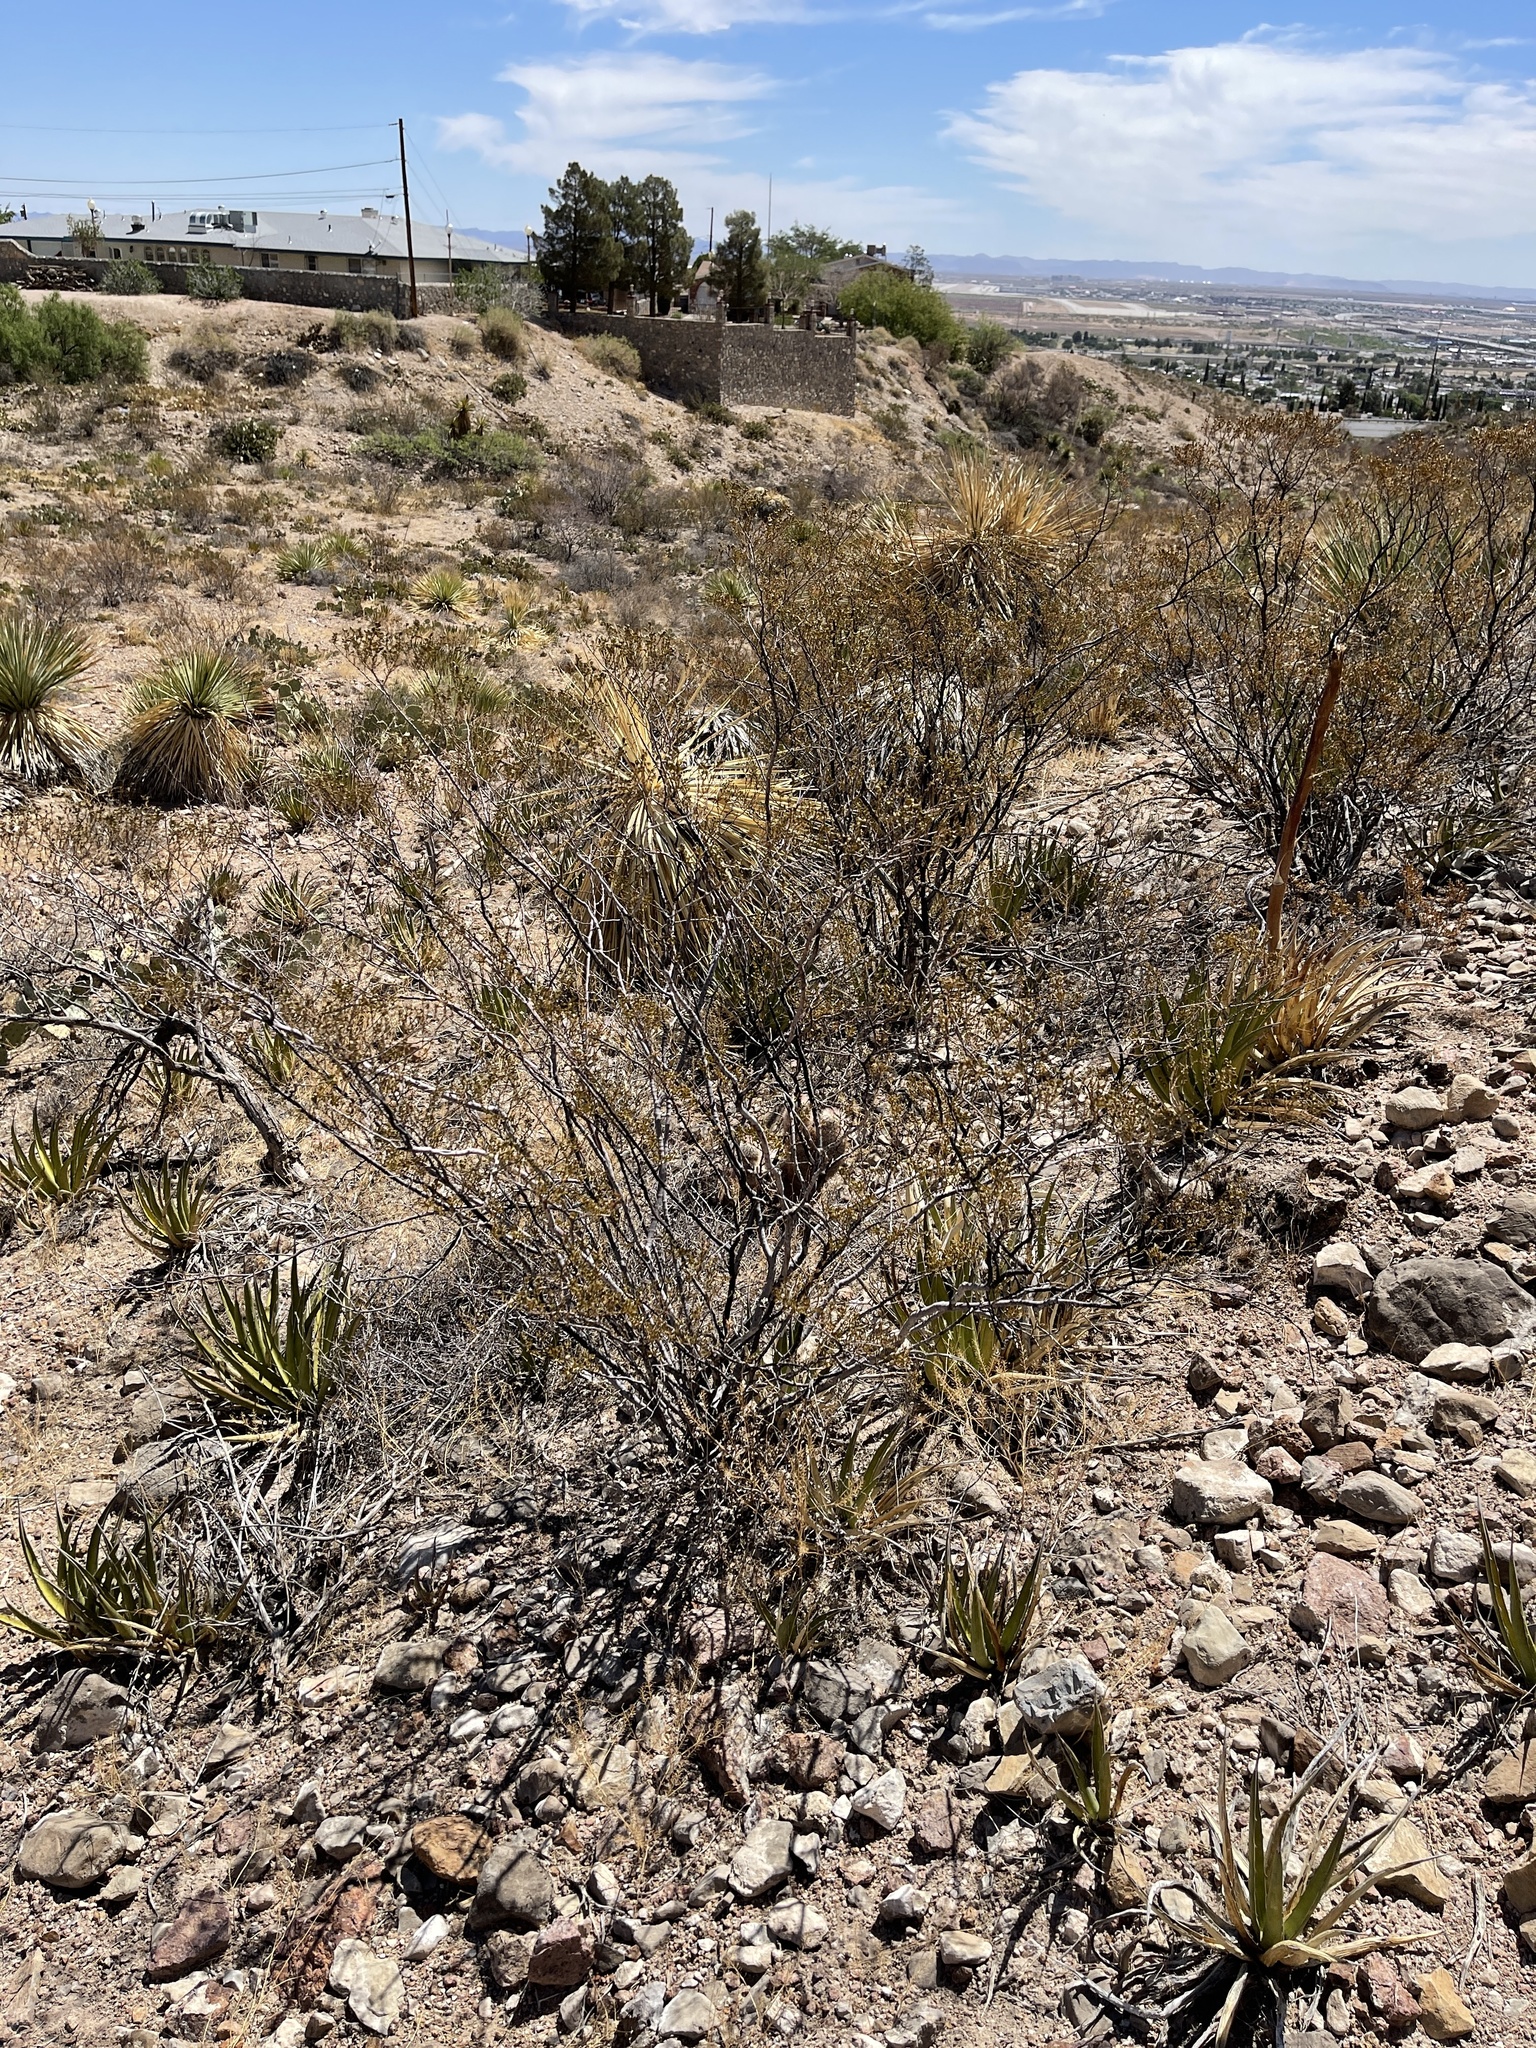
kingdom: Plantae
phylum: Tracheophyta
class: Magnoliopsida
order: Zygophyllales
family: Zygophyllaceae
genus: Larrea
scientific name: Larrea tridentata
